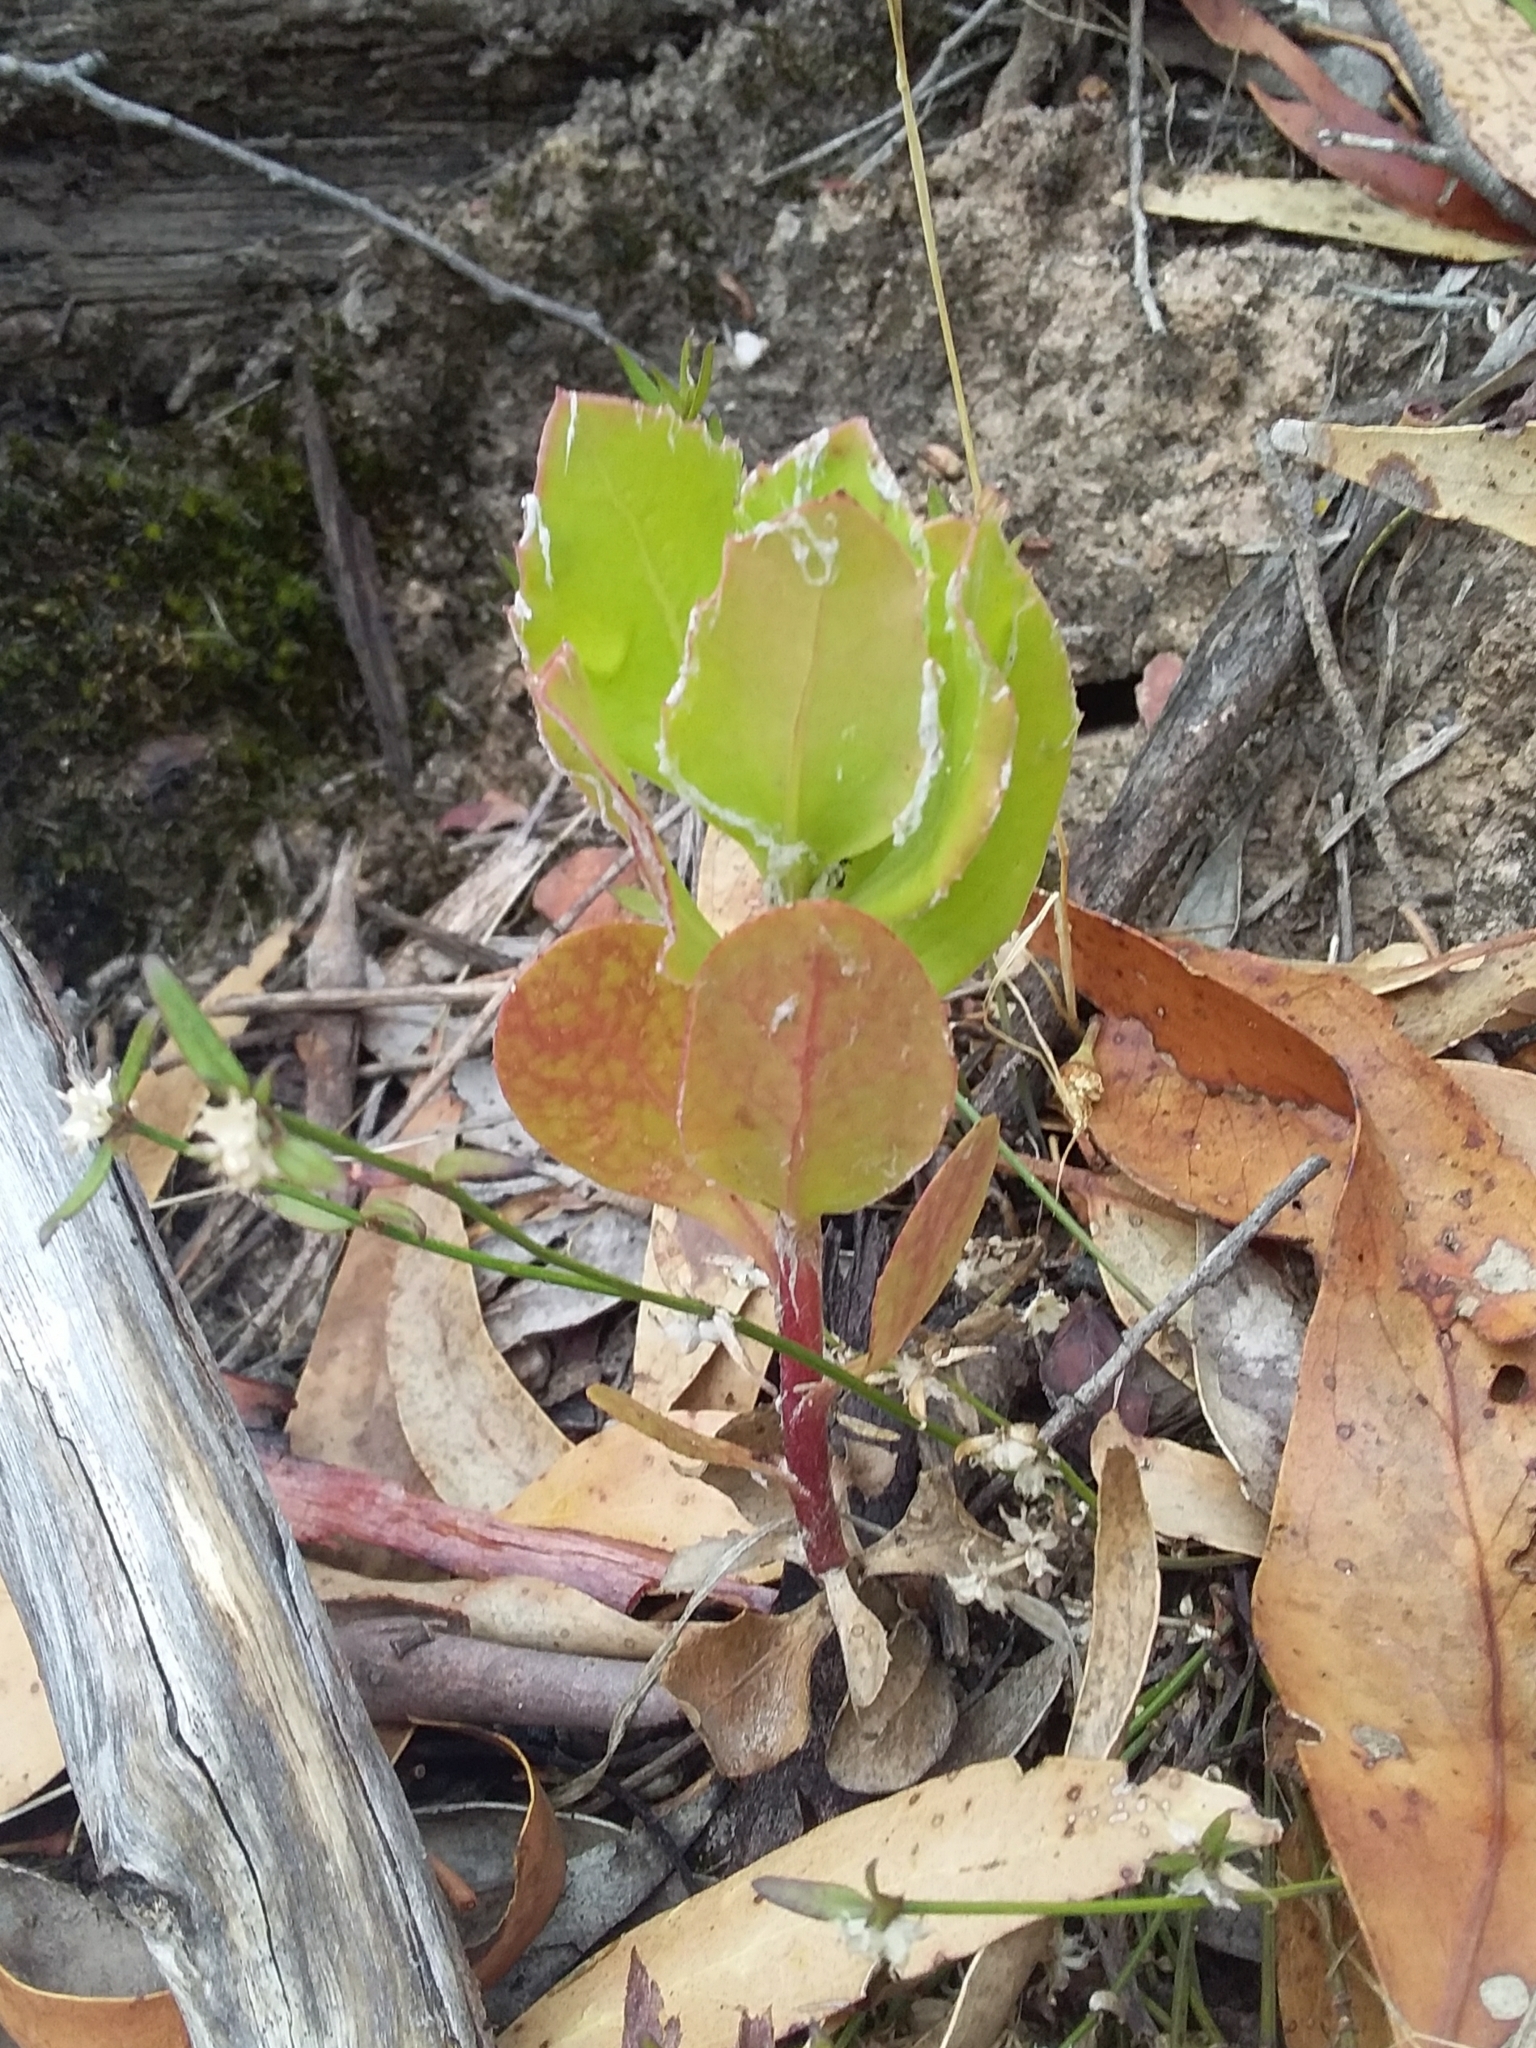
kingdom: Plantae
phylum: Tracheophyta
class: Magnoliopsida
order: Asterales
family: Asteraceae
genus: Osteospermum
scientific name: Osteospermum moniliferum
